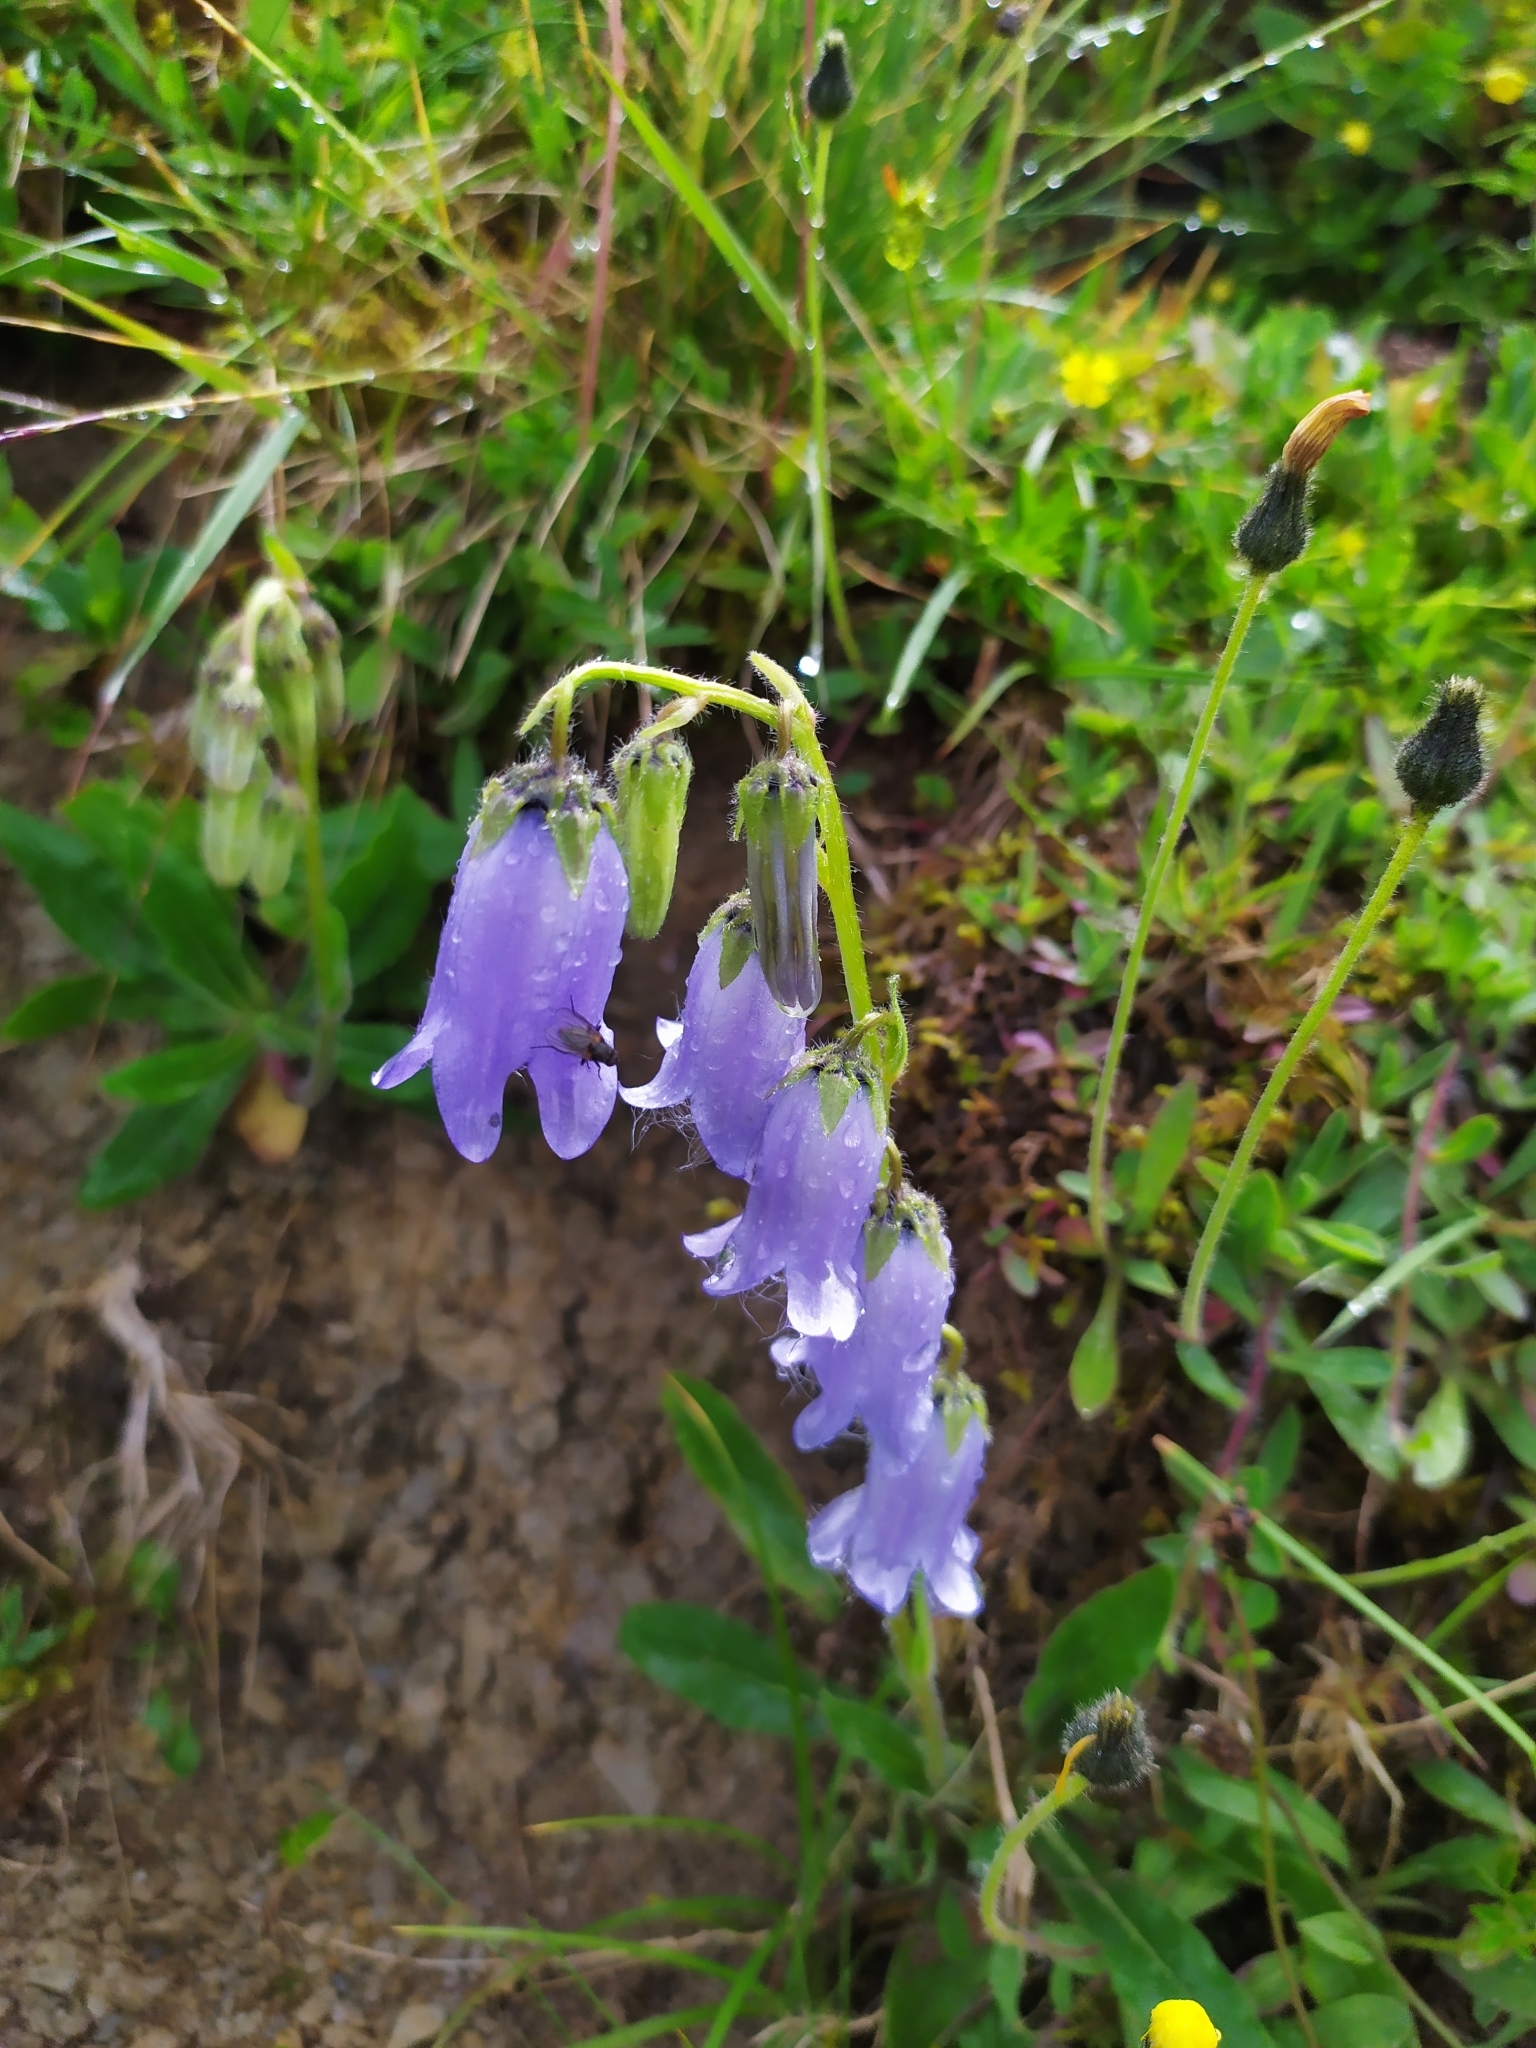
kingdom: Plantae
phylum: Tracheophyta
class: Magnoliopsida
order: Asterales
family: Campanulaceae
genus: Campanula
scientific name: Campanula barbata
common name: Bearded bellflower
